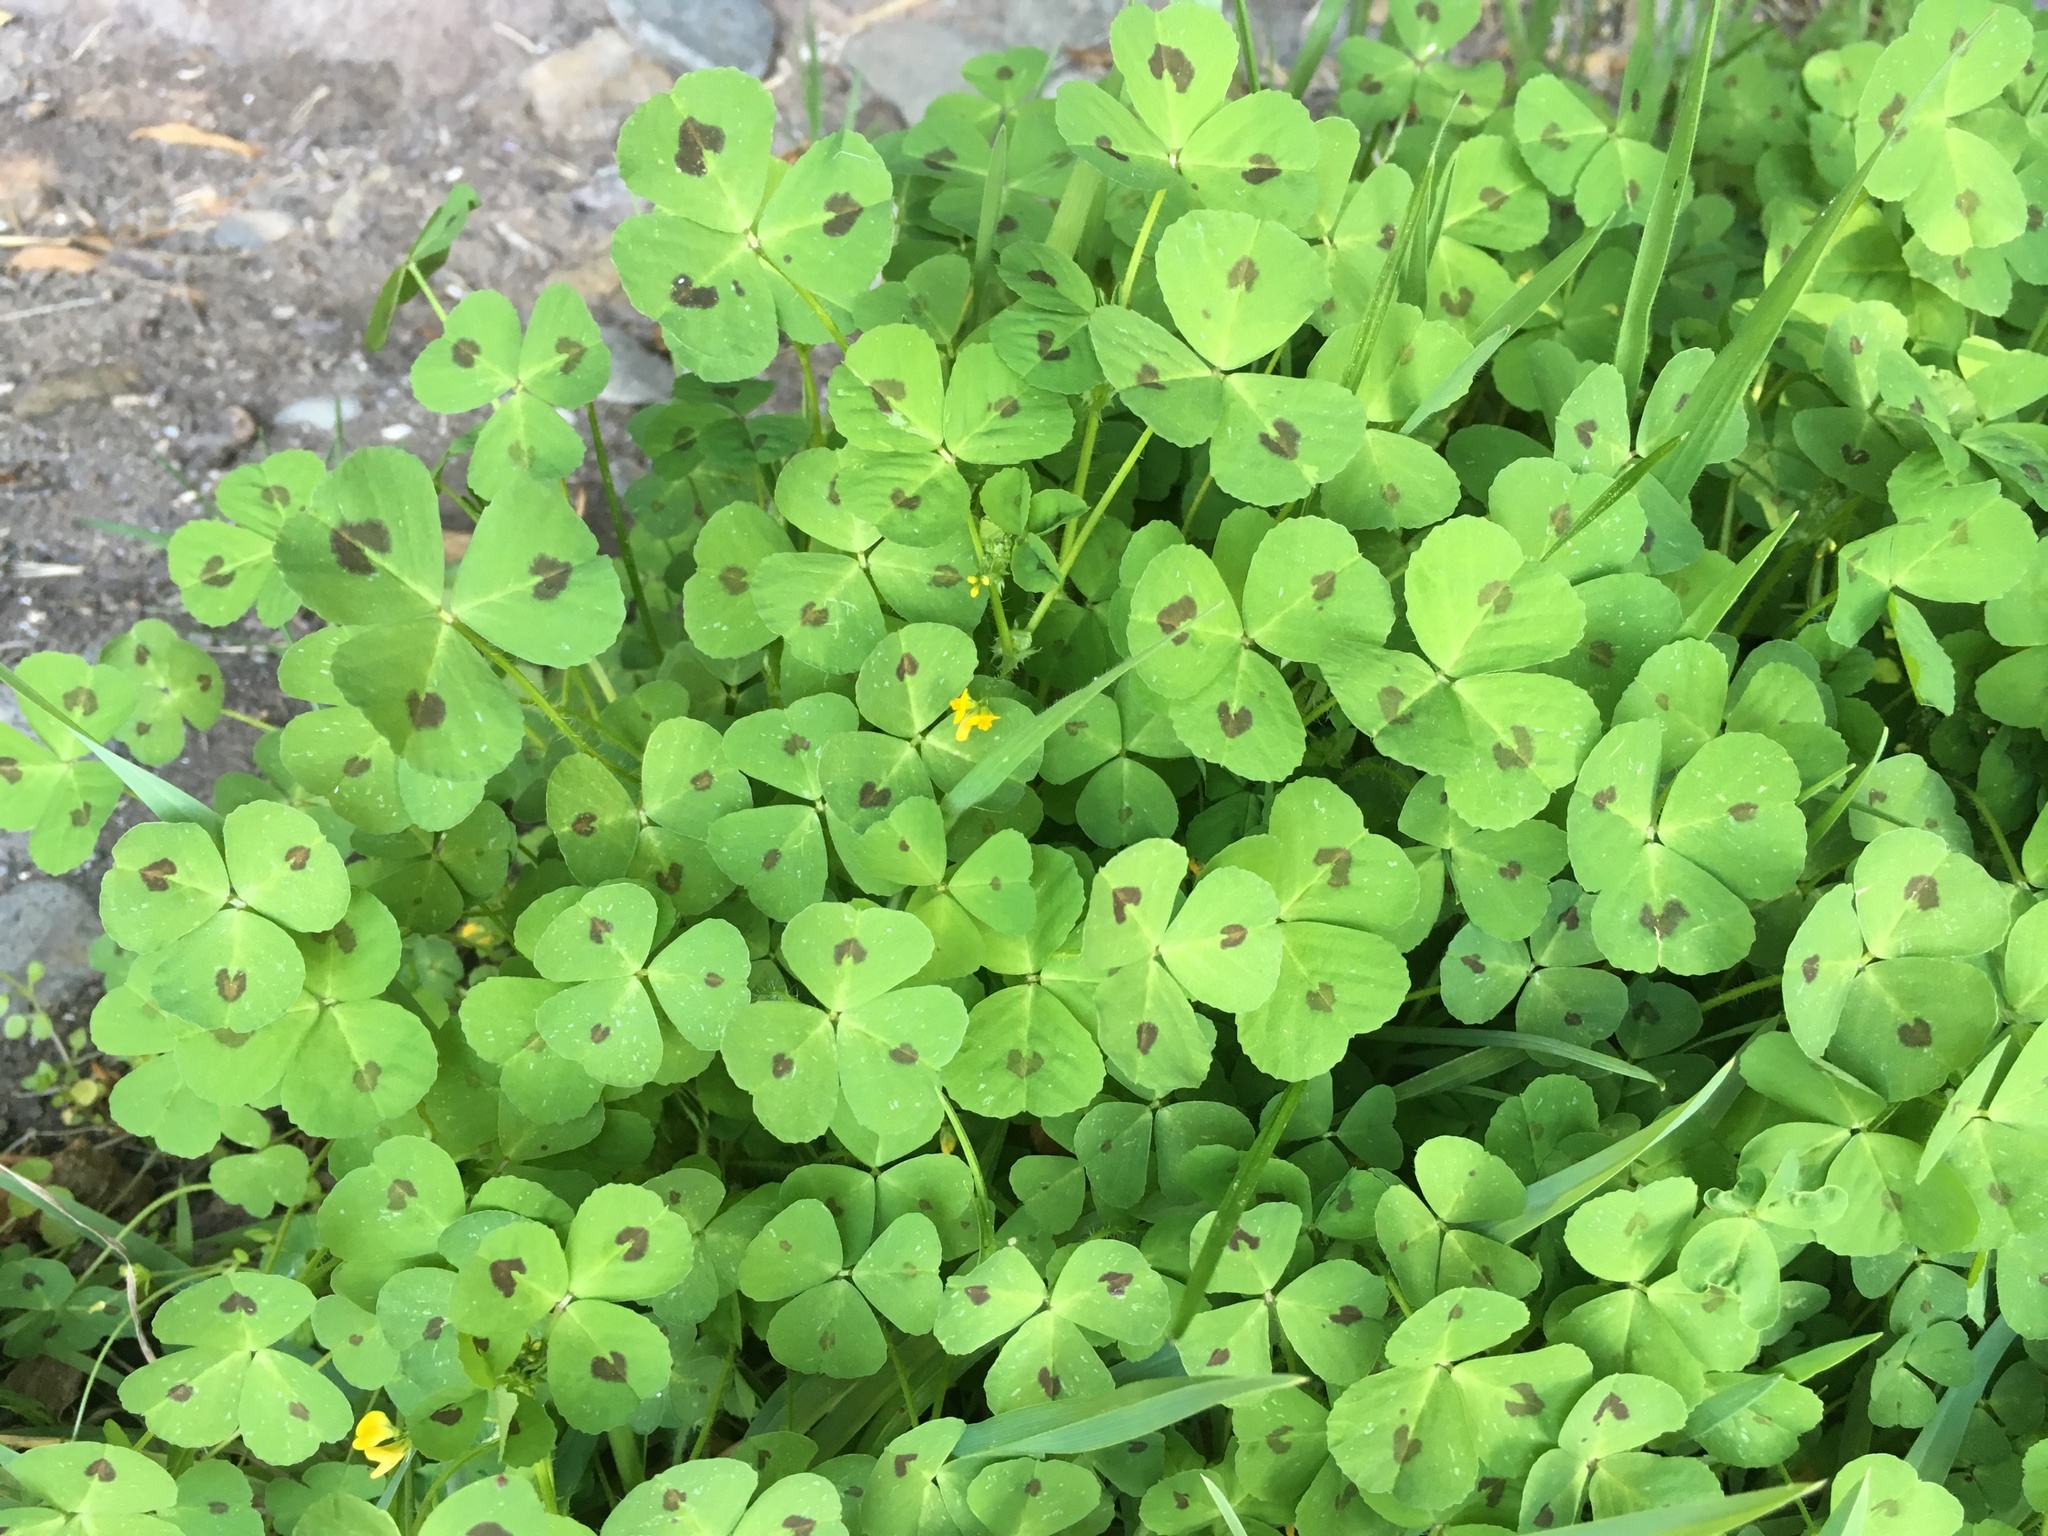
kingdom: Plantae
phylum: Tracheophyta
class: Magnoliopsida
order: Fabales
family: Fabaceae
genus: Medicago
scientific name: Medicago arabica
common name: Spotted medick
